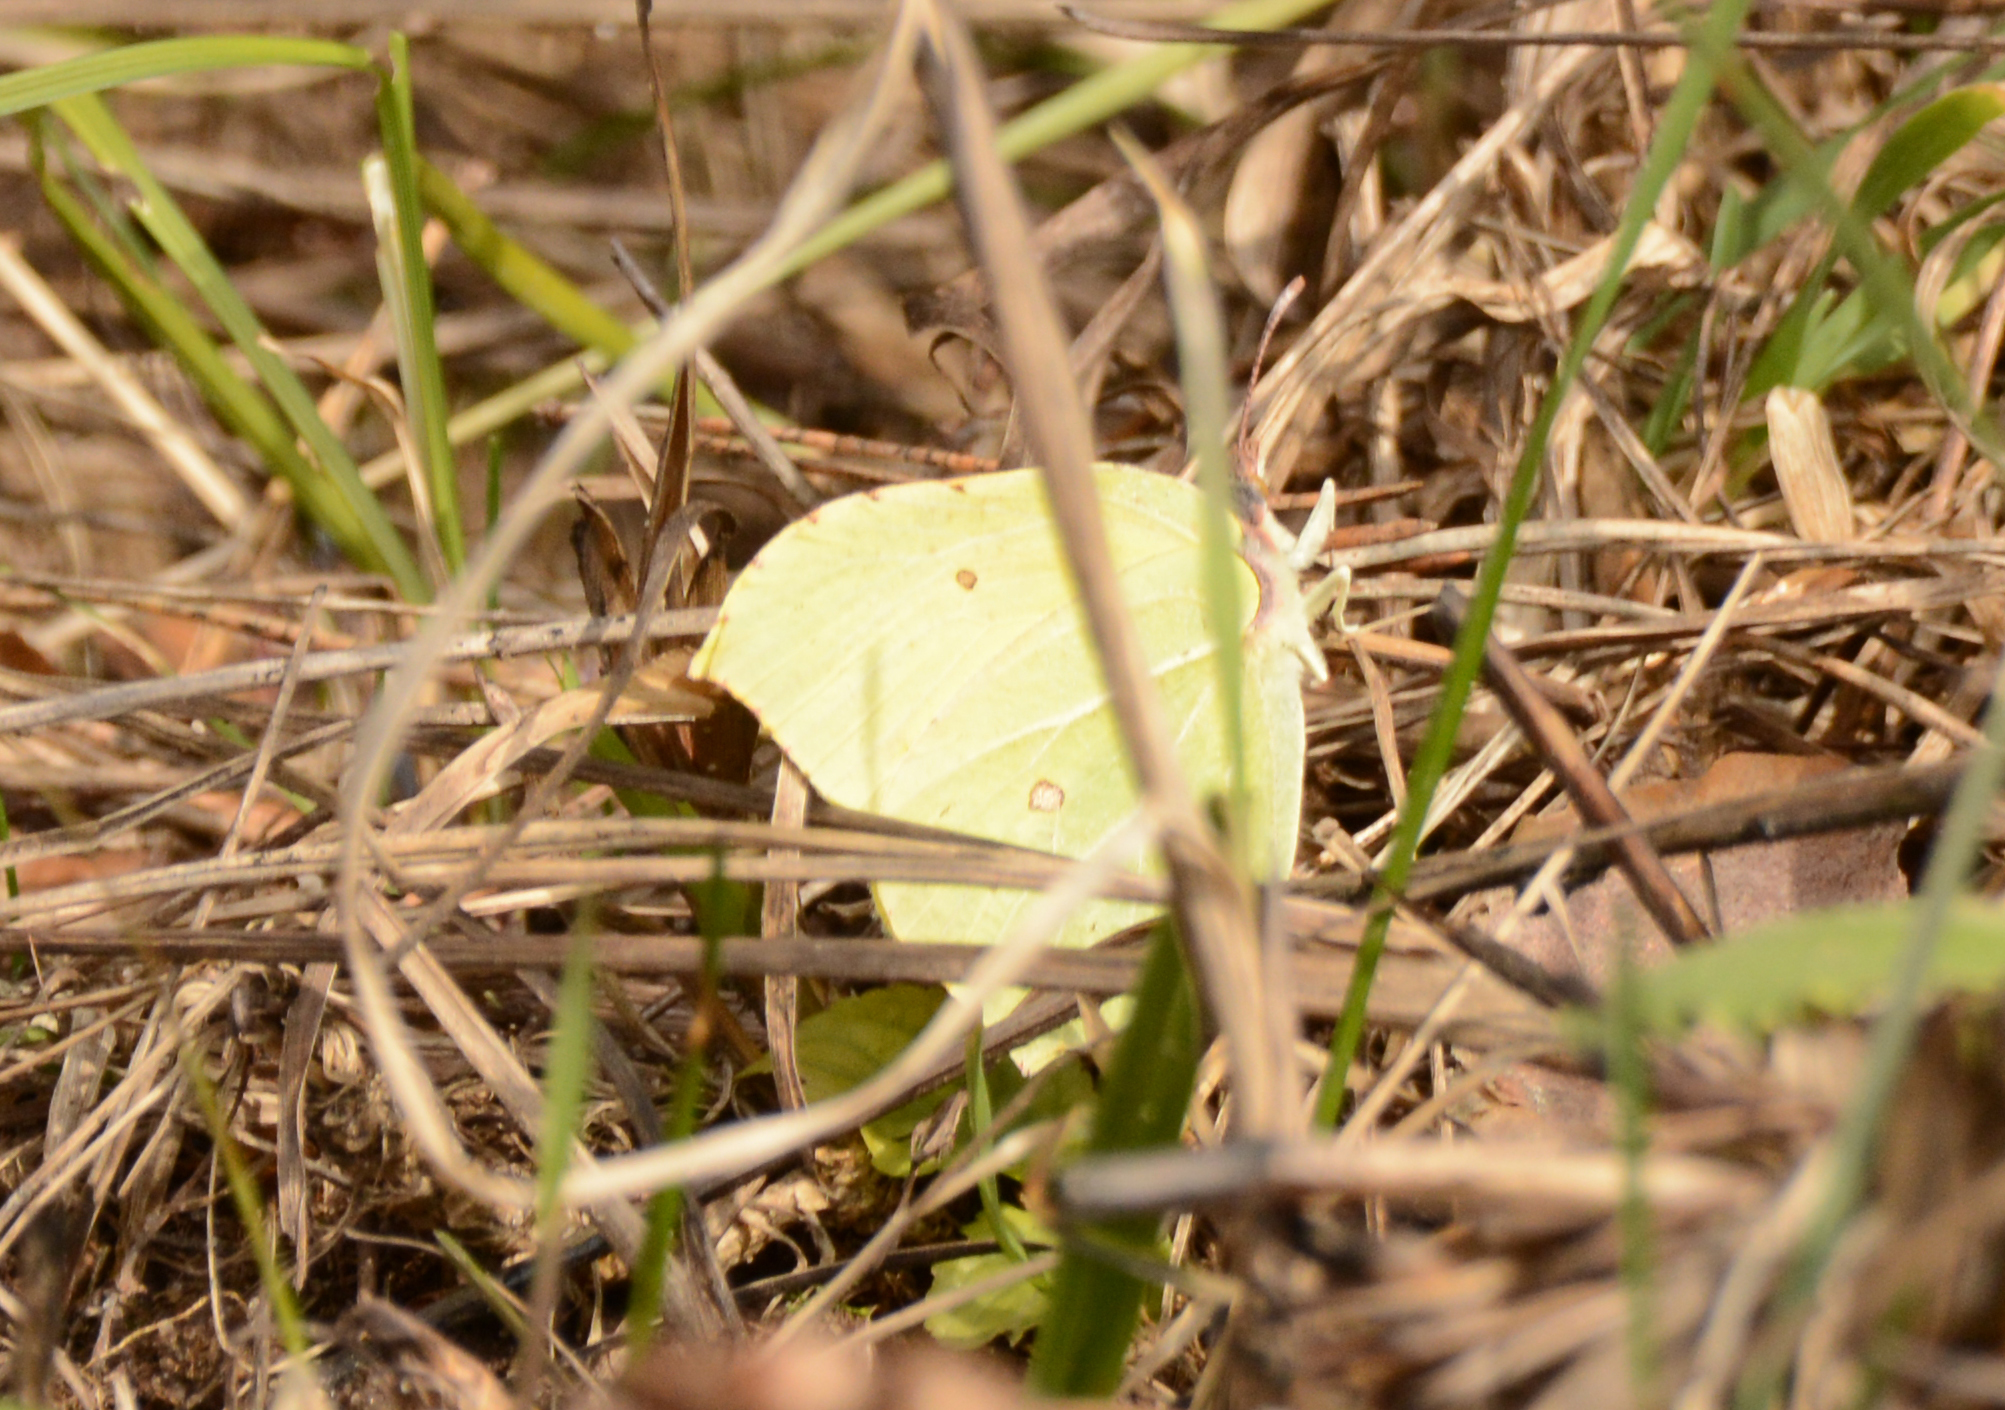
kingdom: Animalia
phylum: Arthropoda
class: Insecta
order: Lepidoptera
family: Pieridae
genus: Gonepteryx
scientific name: Gonepteryx rhamni
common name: Brimstone
